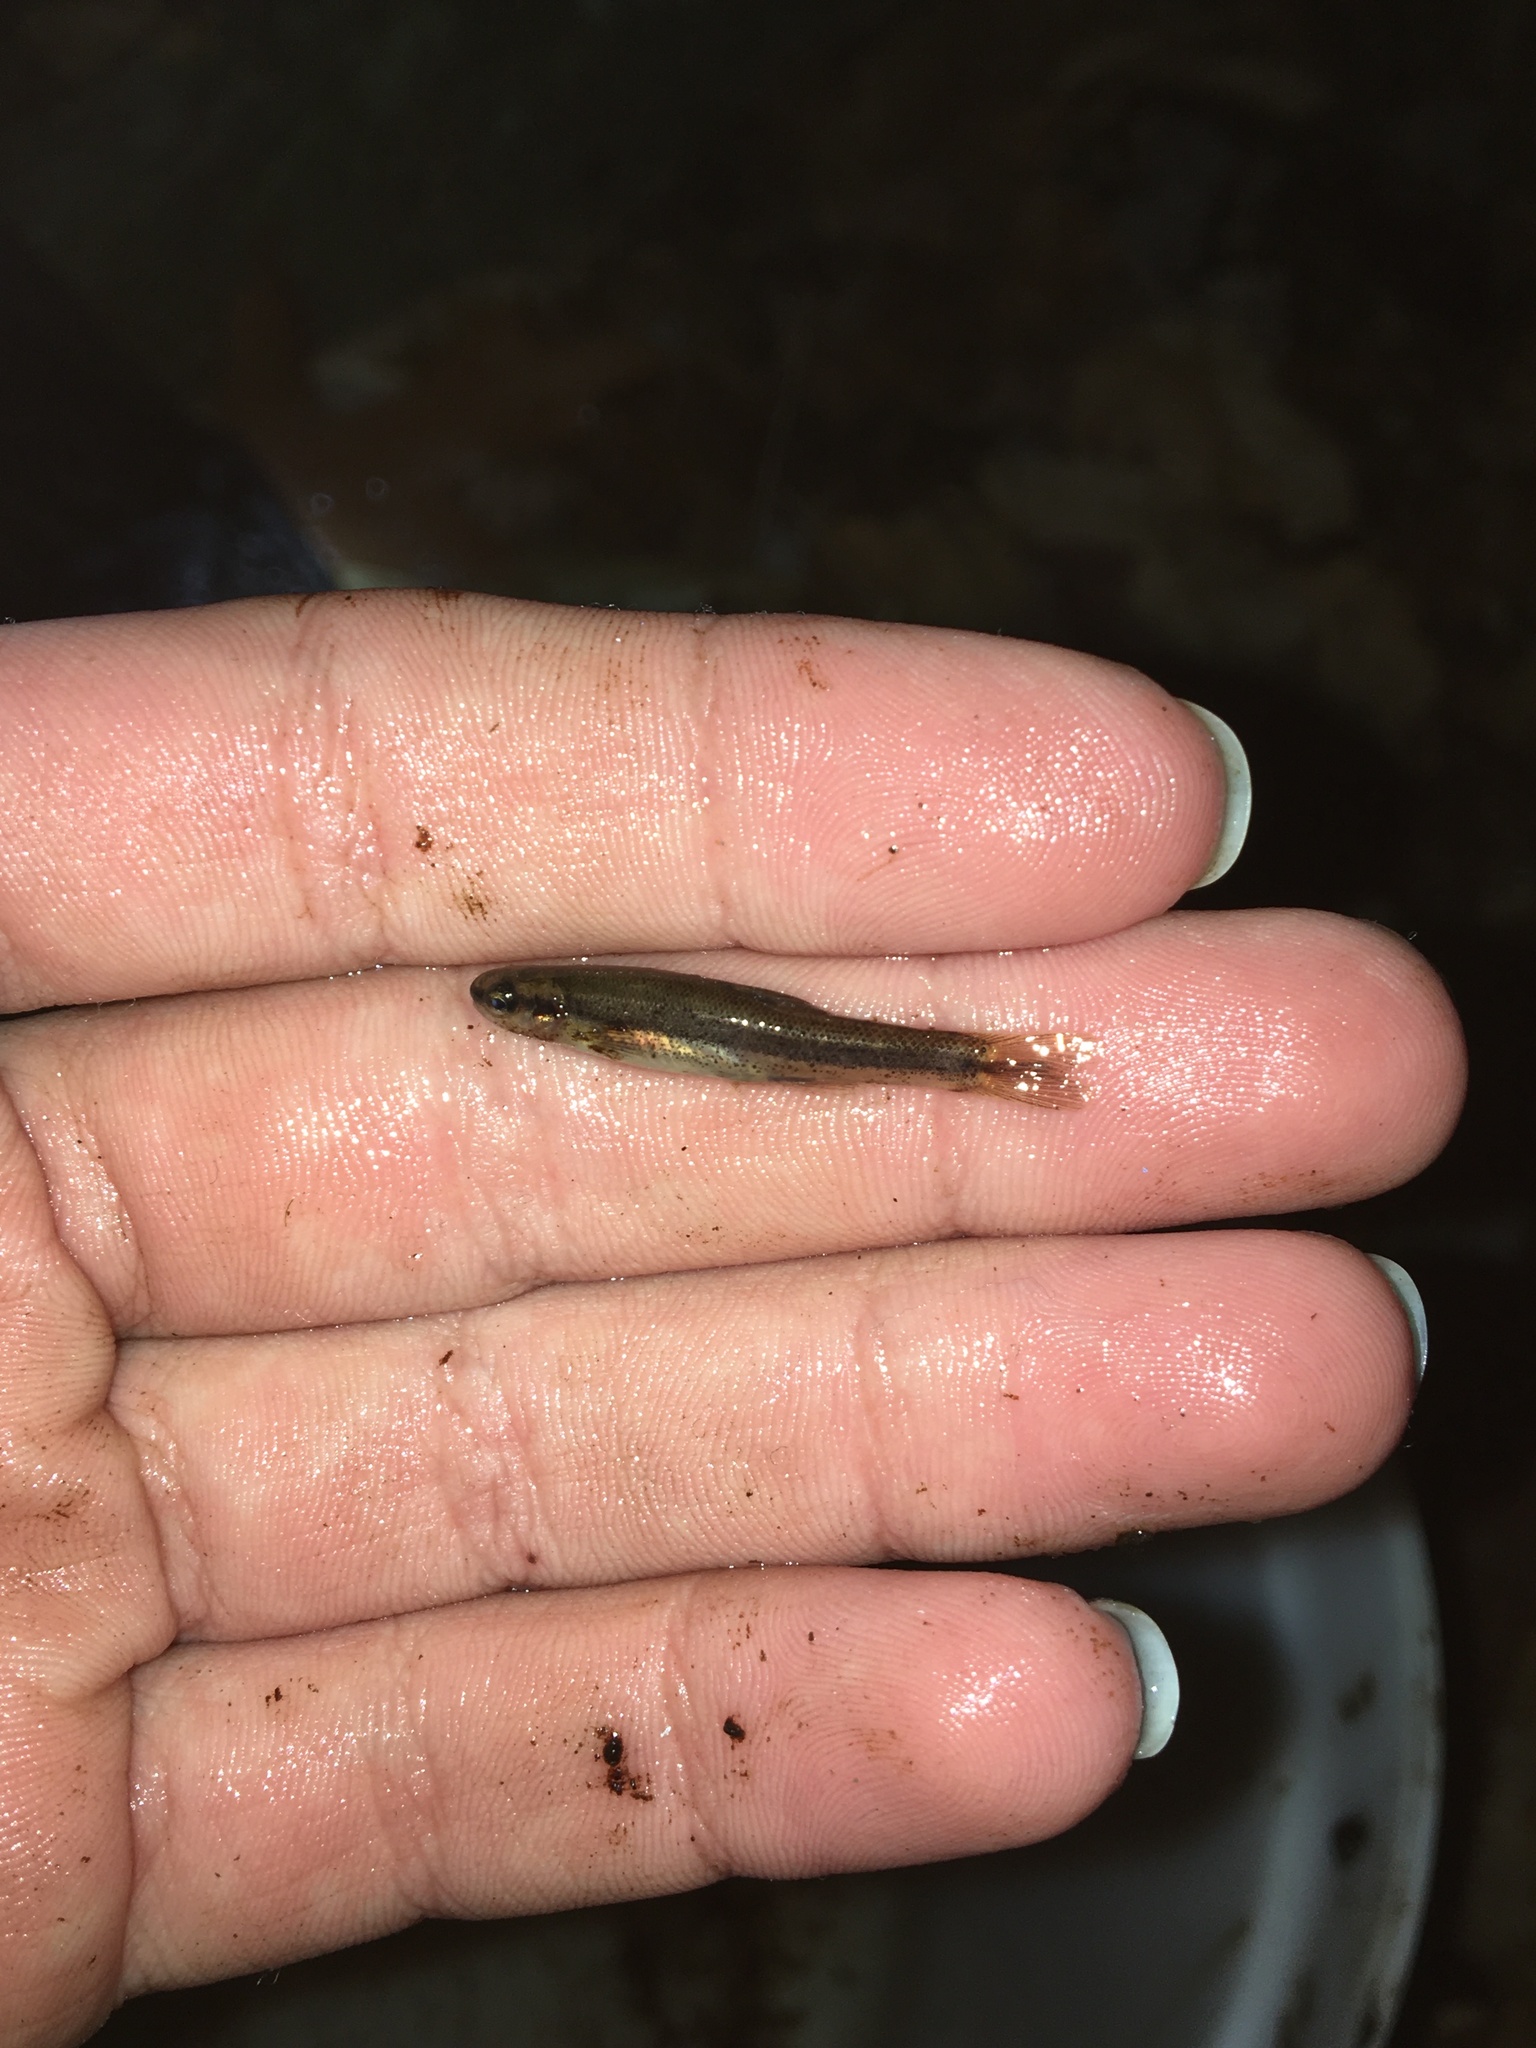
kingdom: Animalia
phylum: Chordata
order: Cypriniformes
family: Cyprinidae
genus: Rhinichthys
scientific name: Rhinichthys atratulus
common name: Eastern blacknose dace
